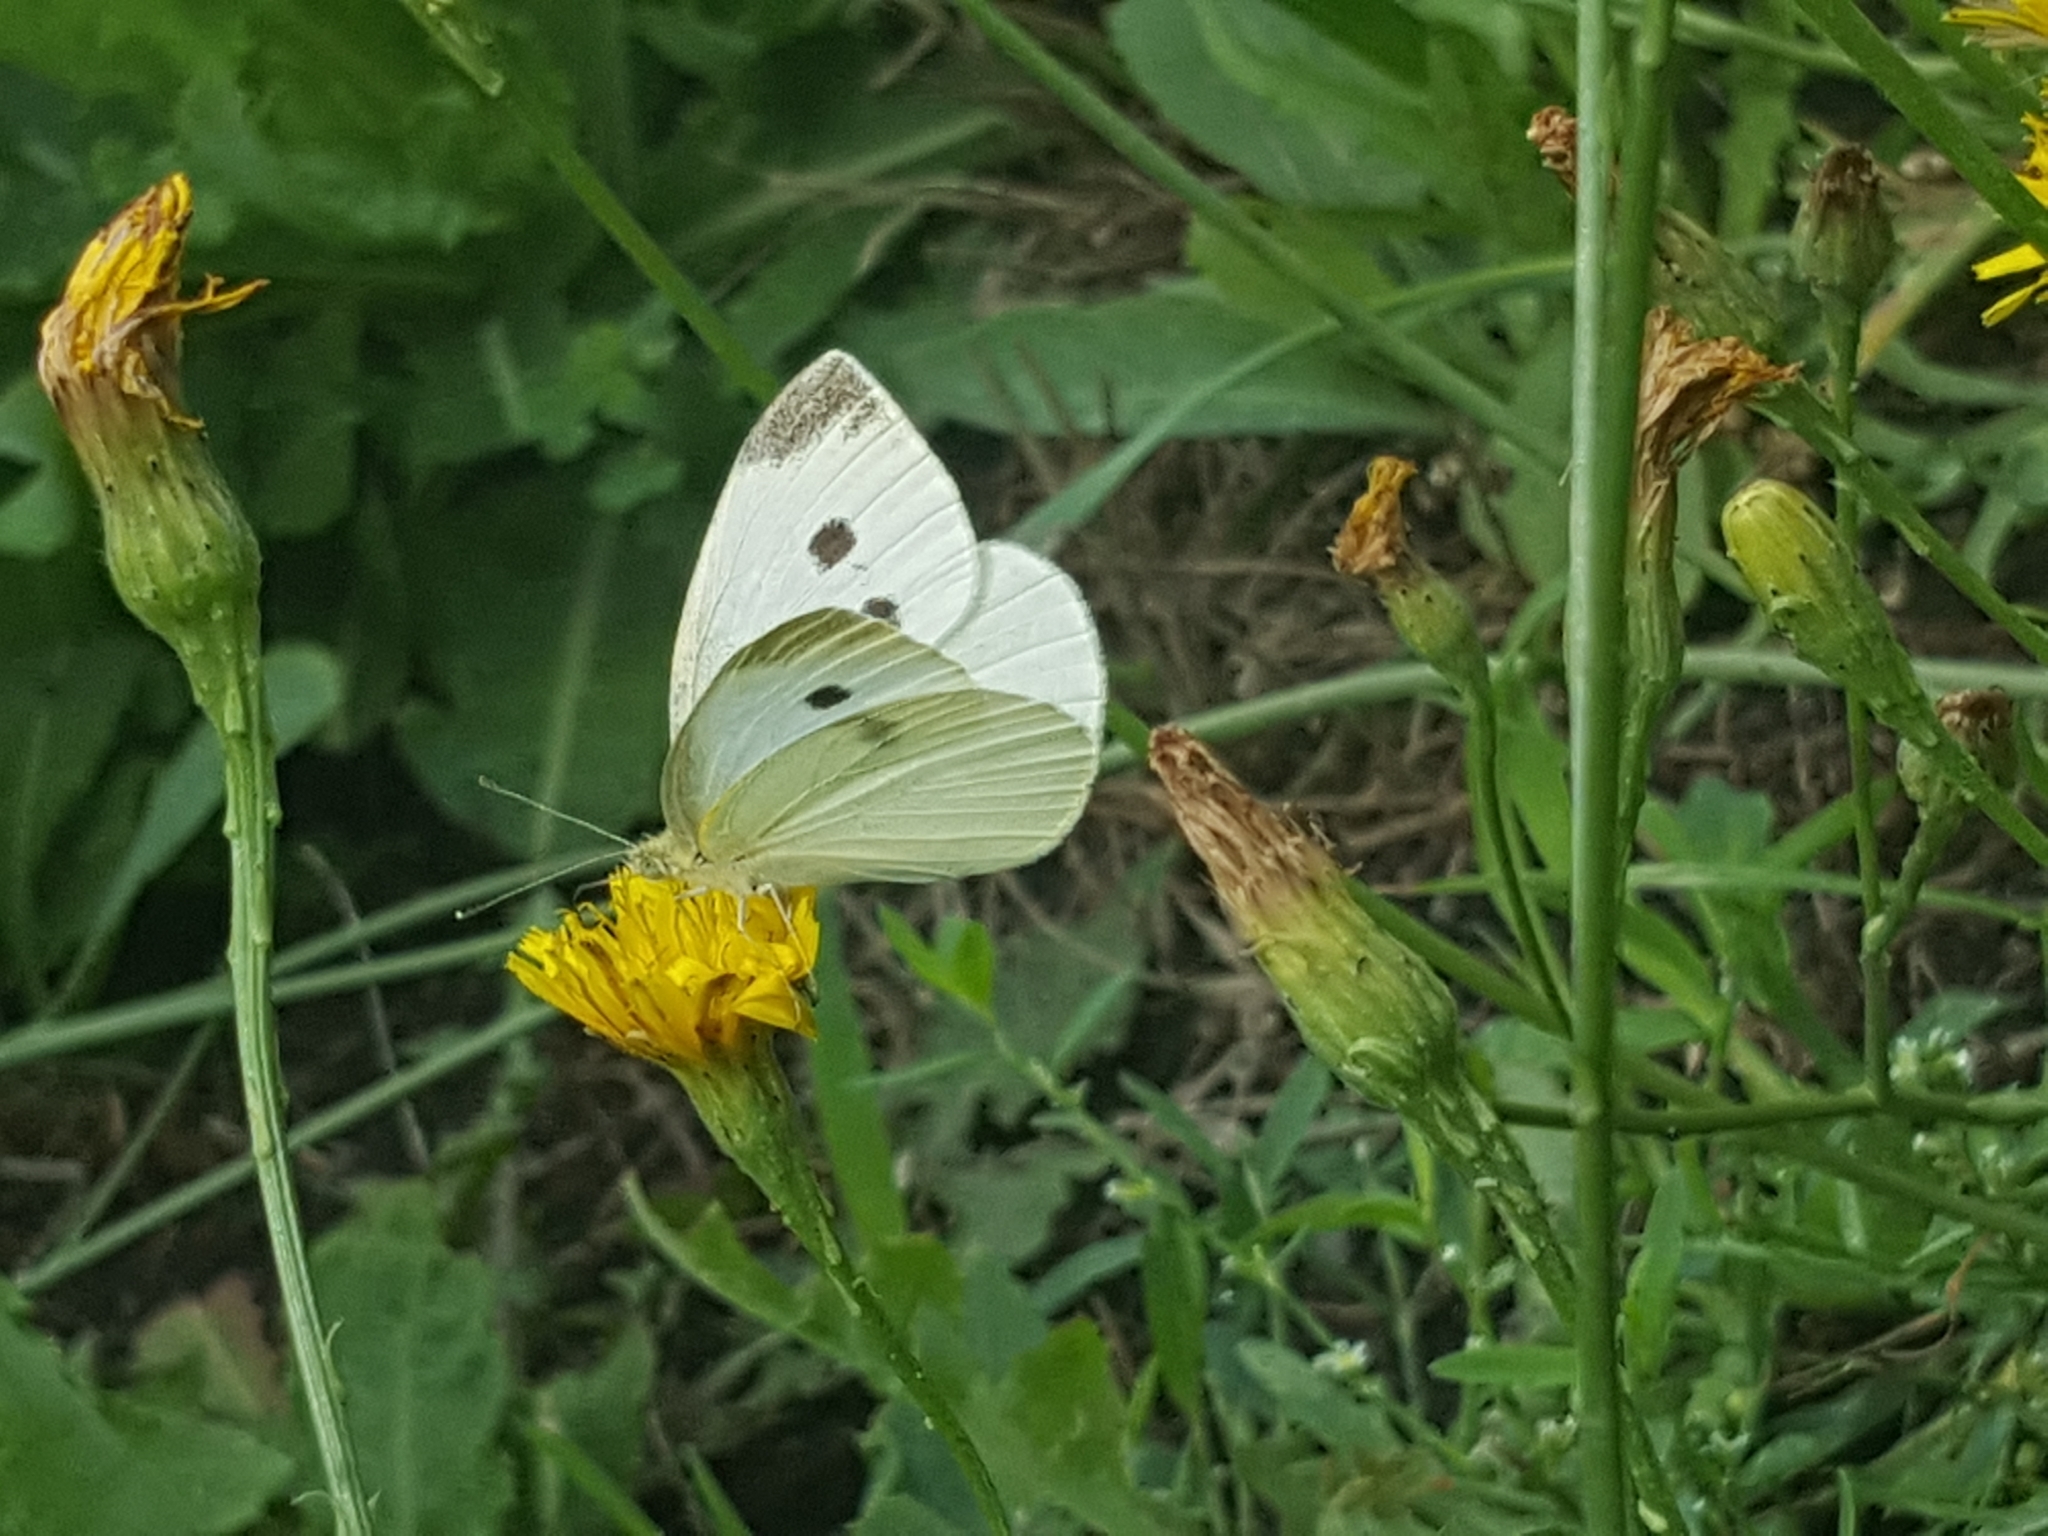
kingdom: Animalia
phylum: Arthropoda
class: Insecta
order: Lepidoptera
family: Pieridae
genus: Pieris
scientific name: Pieris rapae
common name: Small white
